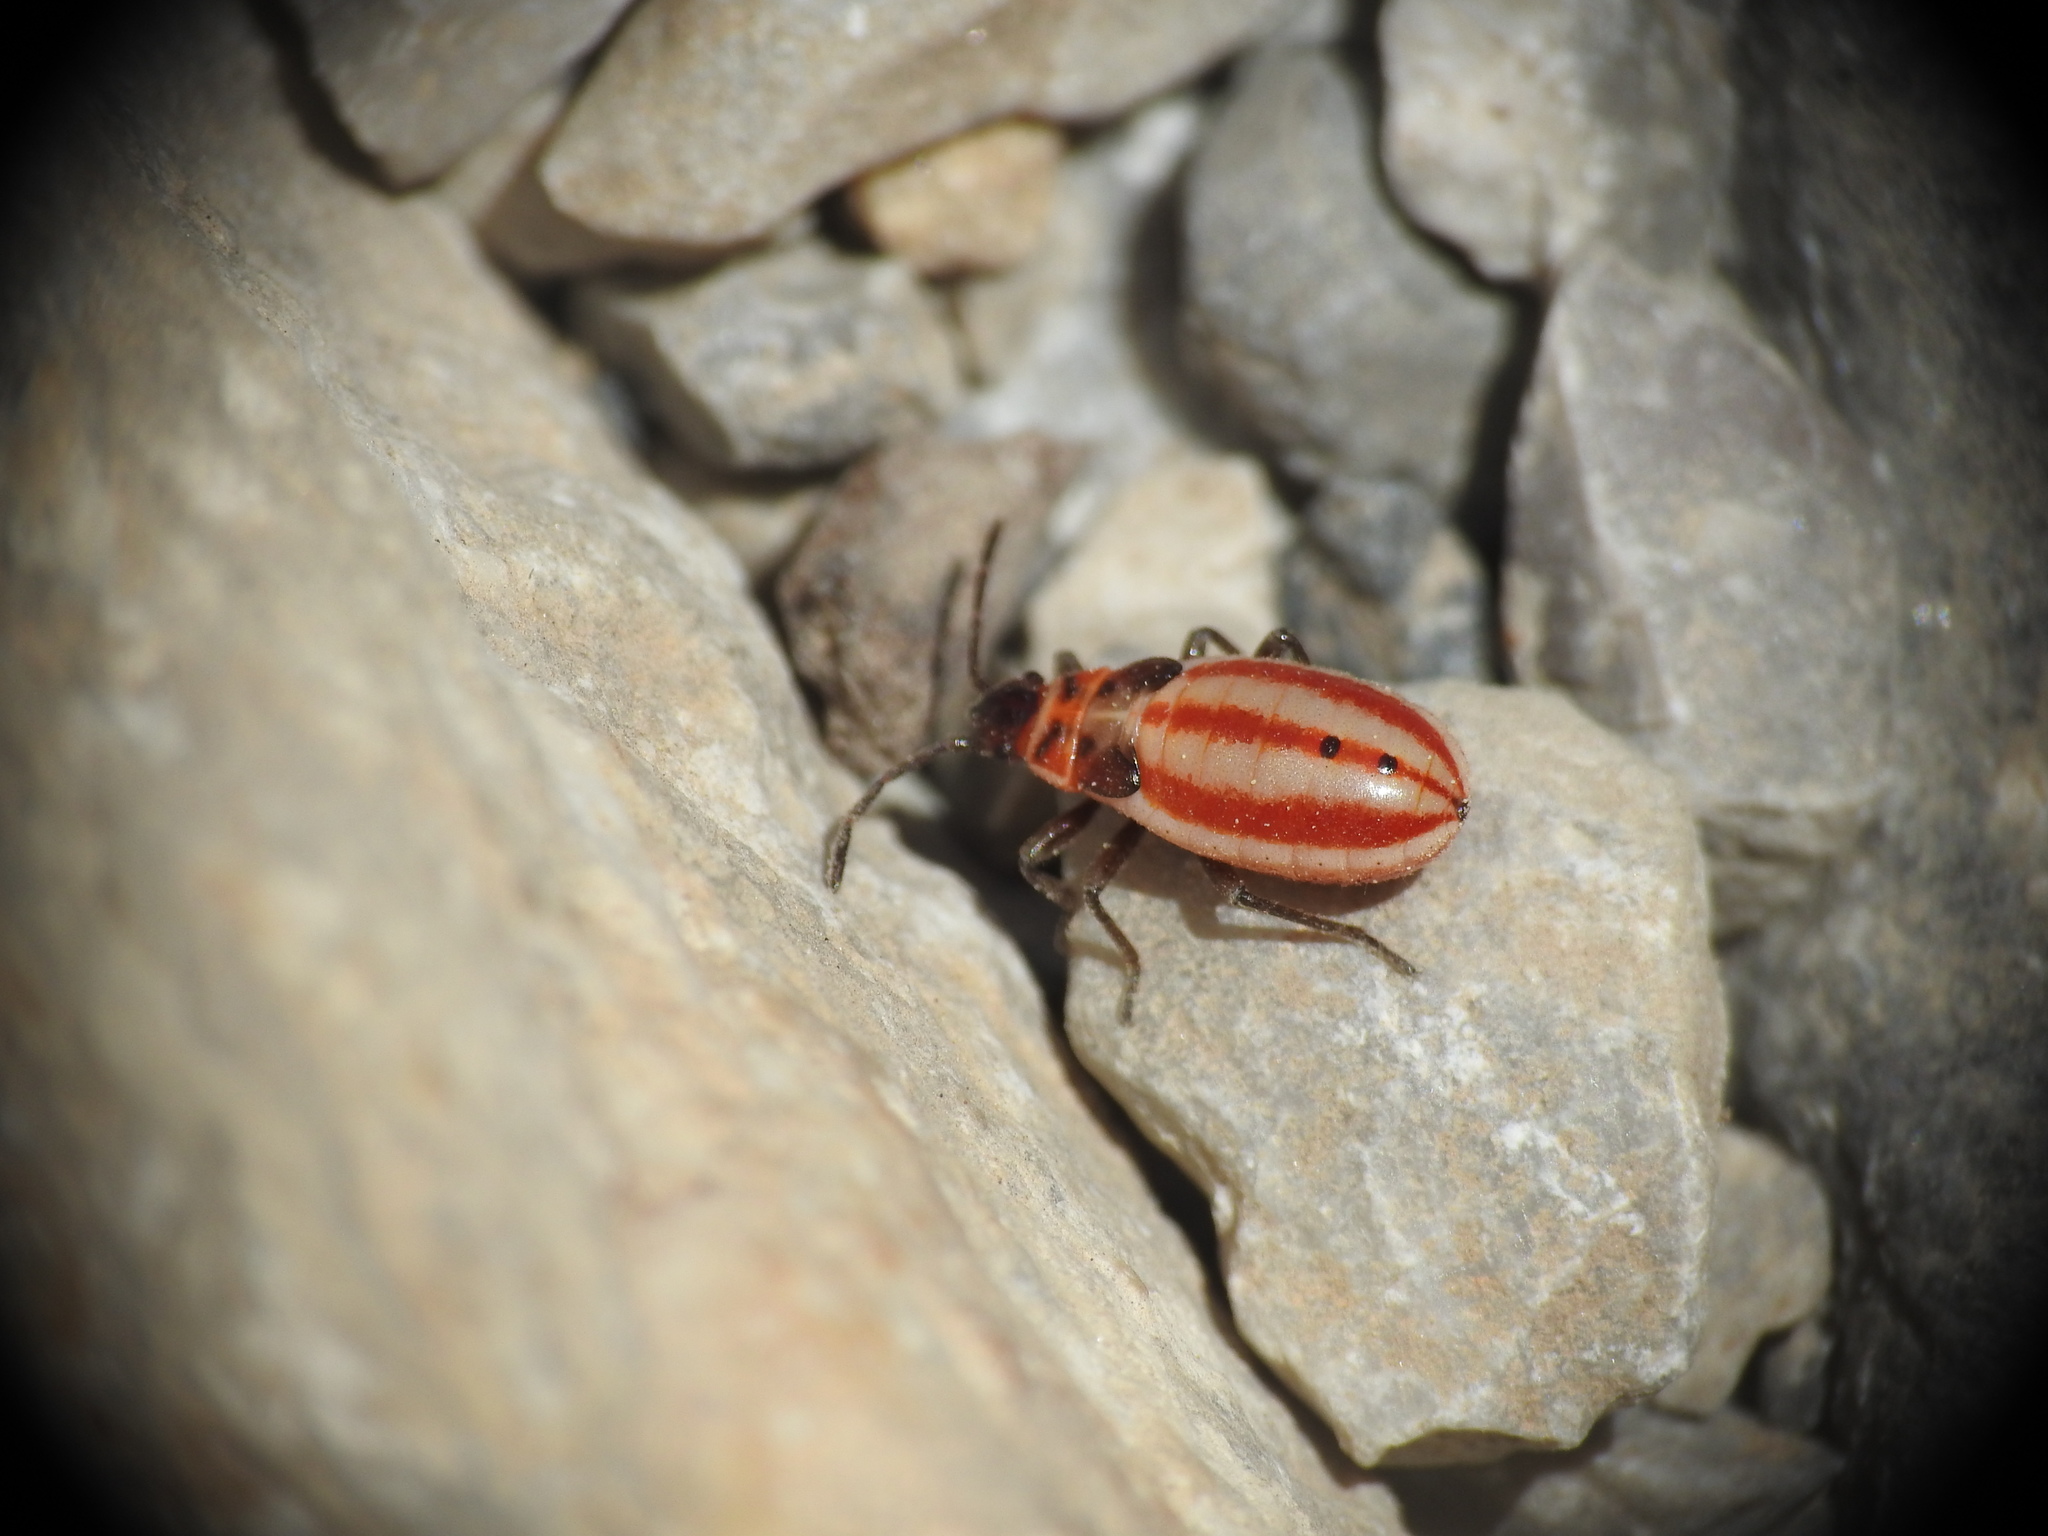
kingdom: Animalia
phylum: Arthropoda
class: Insecta
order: Hemiptera
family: Lygaeidae
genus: Lygaeus
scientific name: Lygaeus creticus
